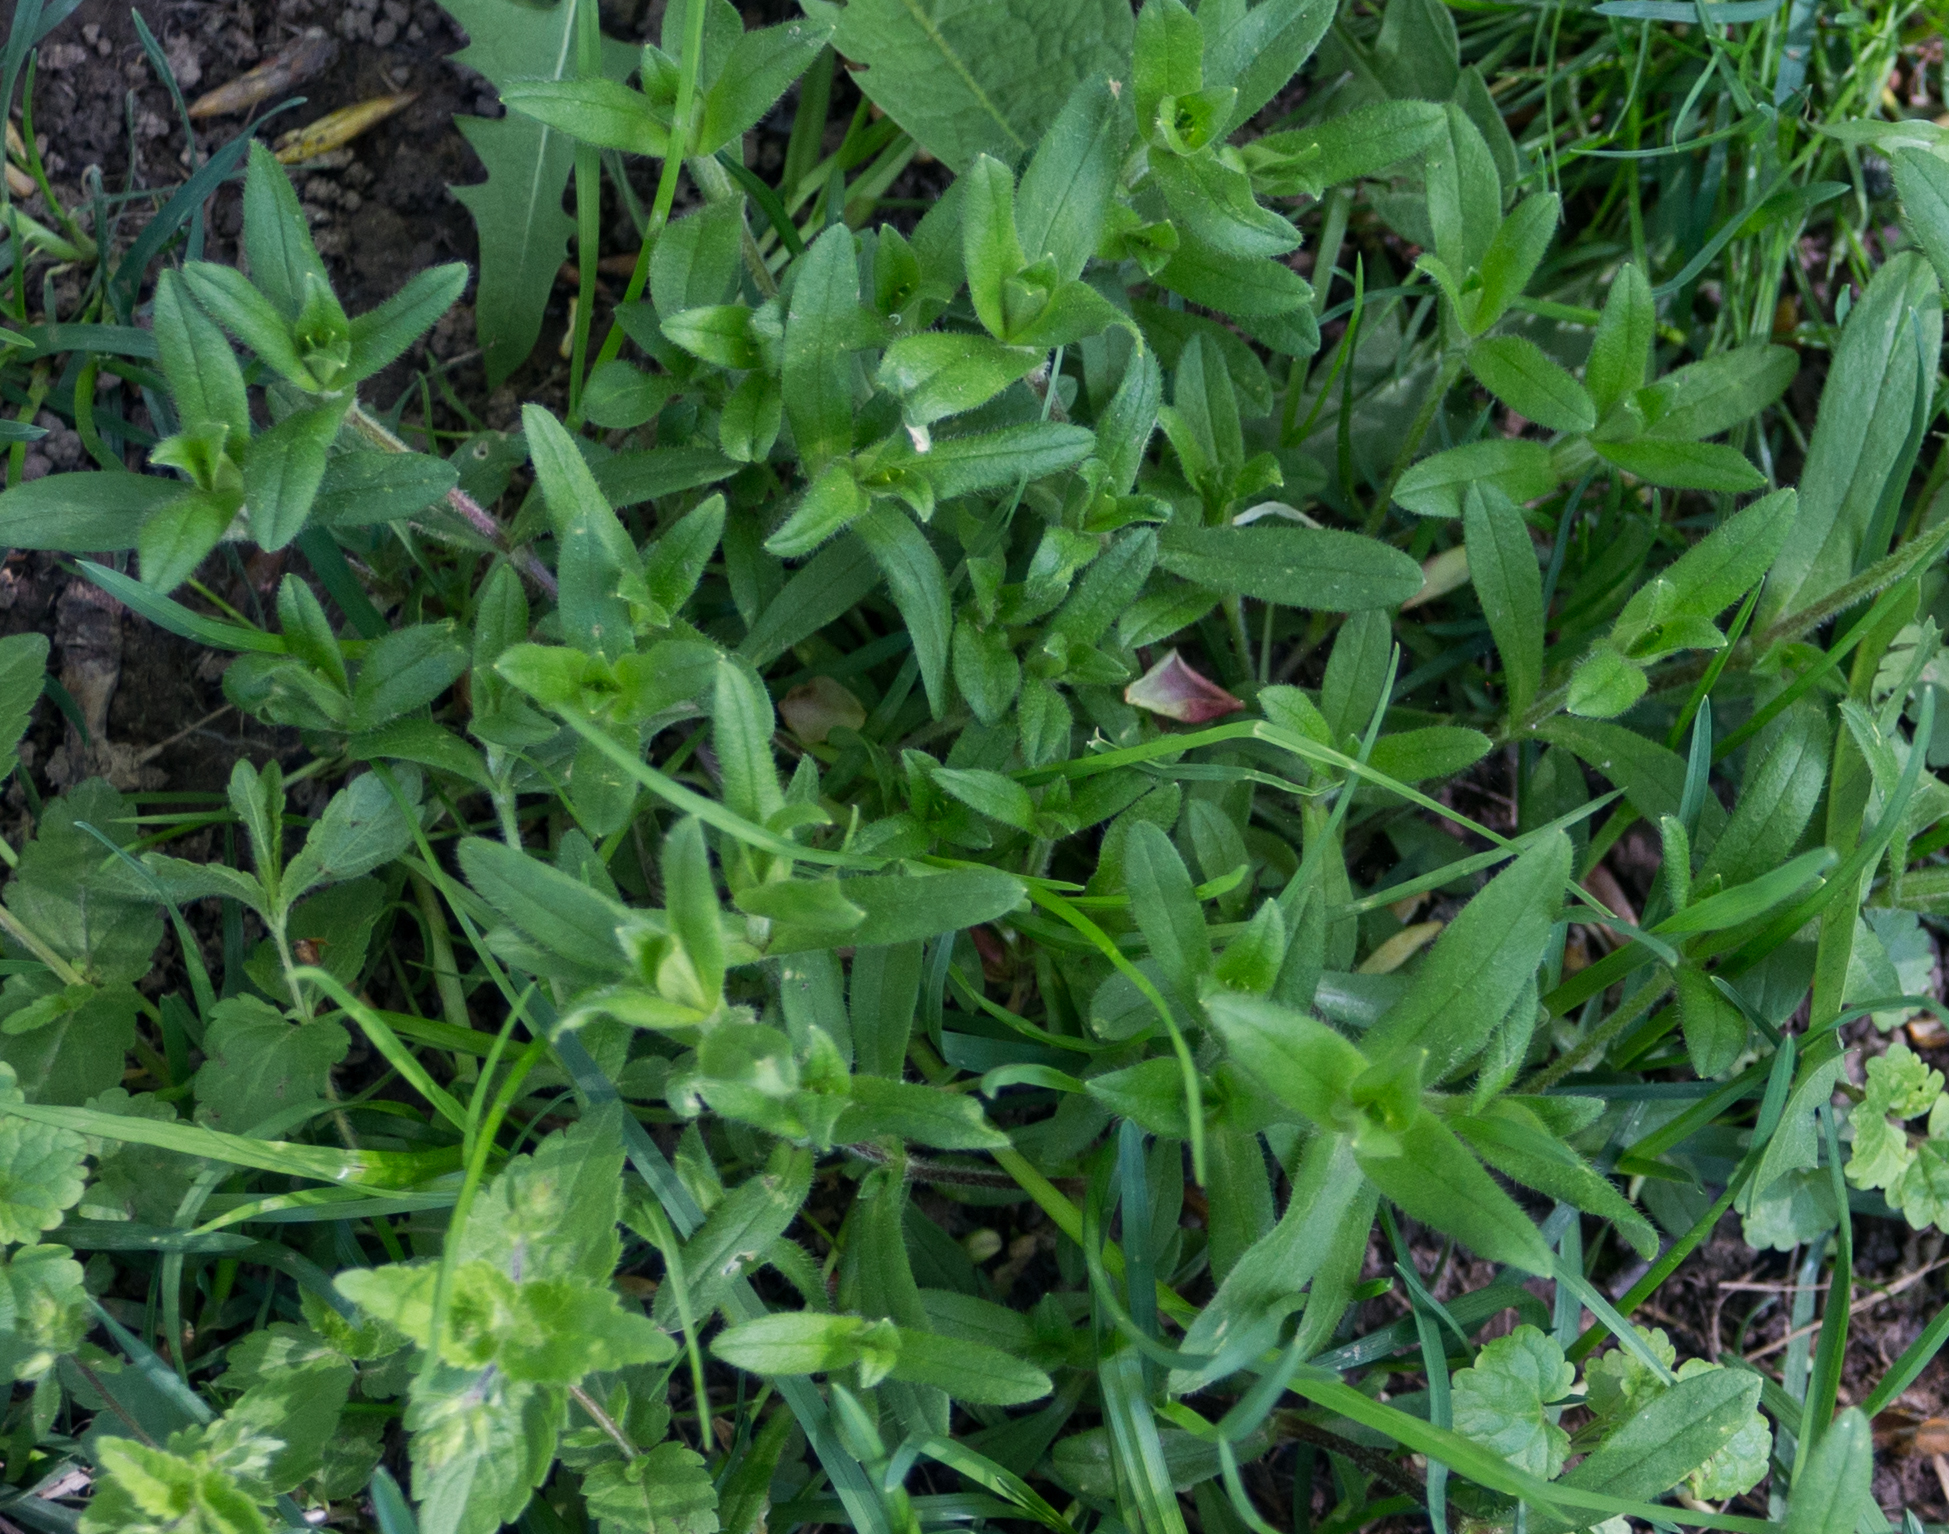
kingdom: Plantae
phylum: Tracheophyta
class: Magnoliopsida
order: Caryophyllales
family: Caryophyllaceae
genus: Cerastium
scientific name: Cerastium holosteoides
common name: Big chickweed
